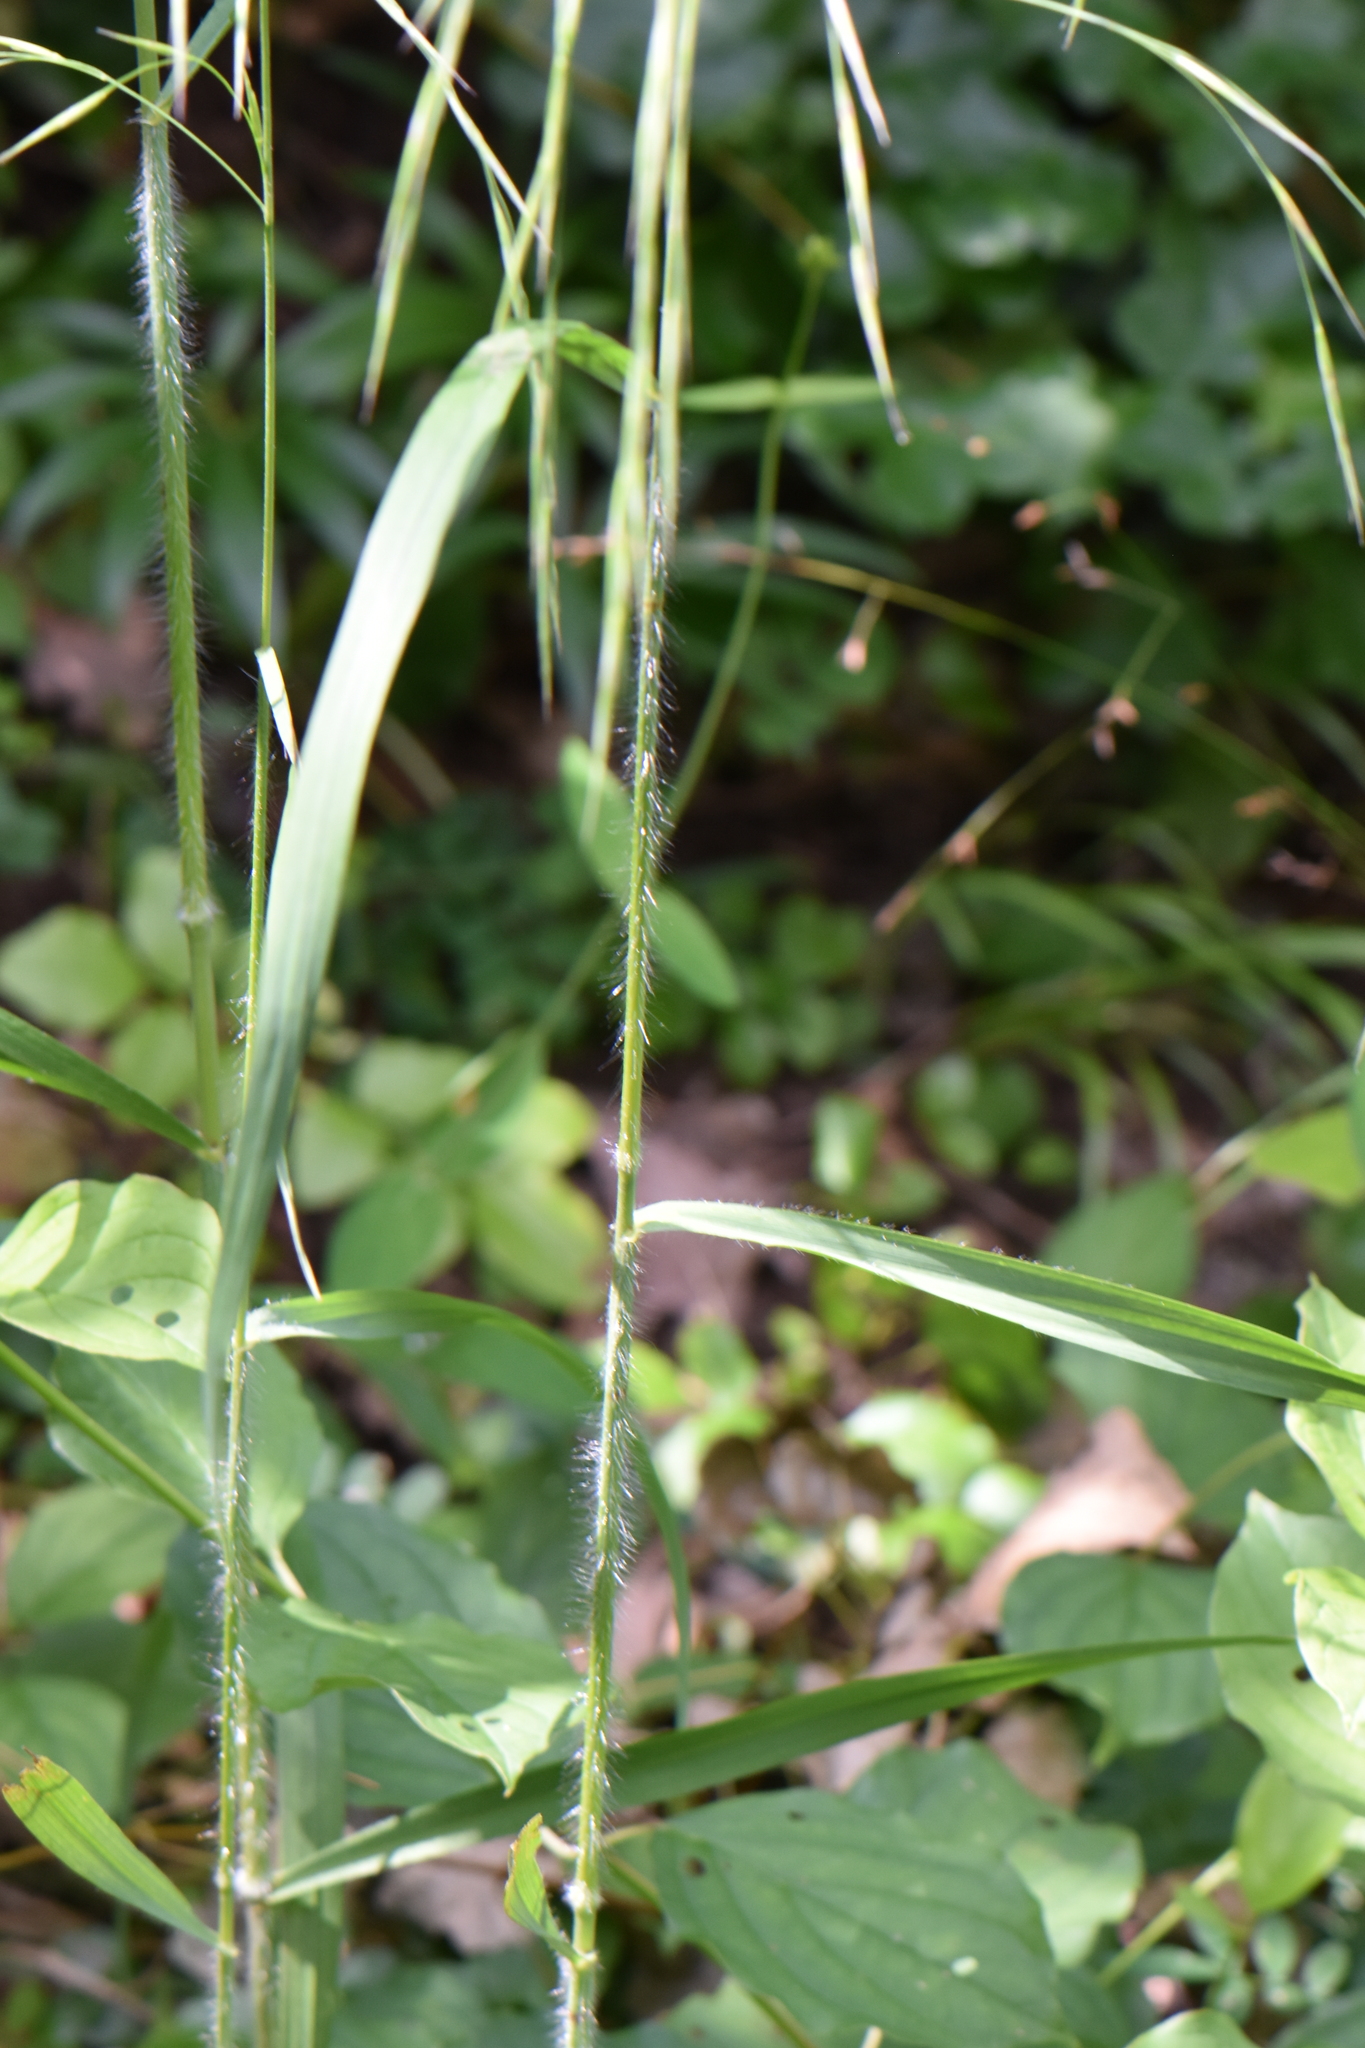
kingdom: Plantae
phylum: Tracheophyta
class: Liliopsida
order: Poales
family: Poaceae
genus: Bromus
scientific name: Bromus ramosus
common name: Hairy brome
